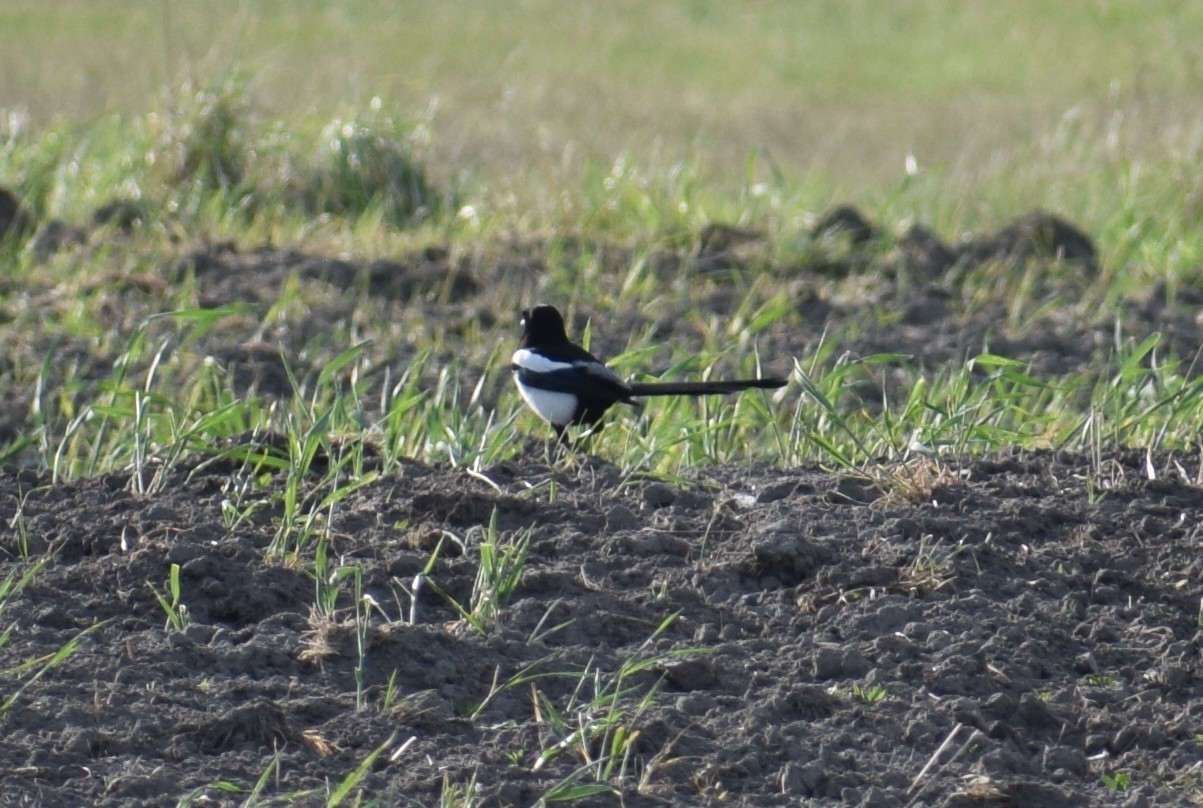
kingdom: Animalia
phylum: Chordata
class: Aves
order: Passeriformes
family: Corvidae
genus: Pica
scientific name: Pica pica
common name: Eurasian magpie
